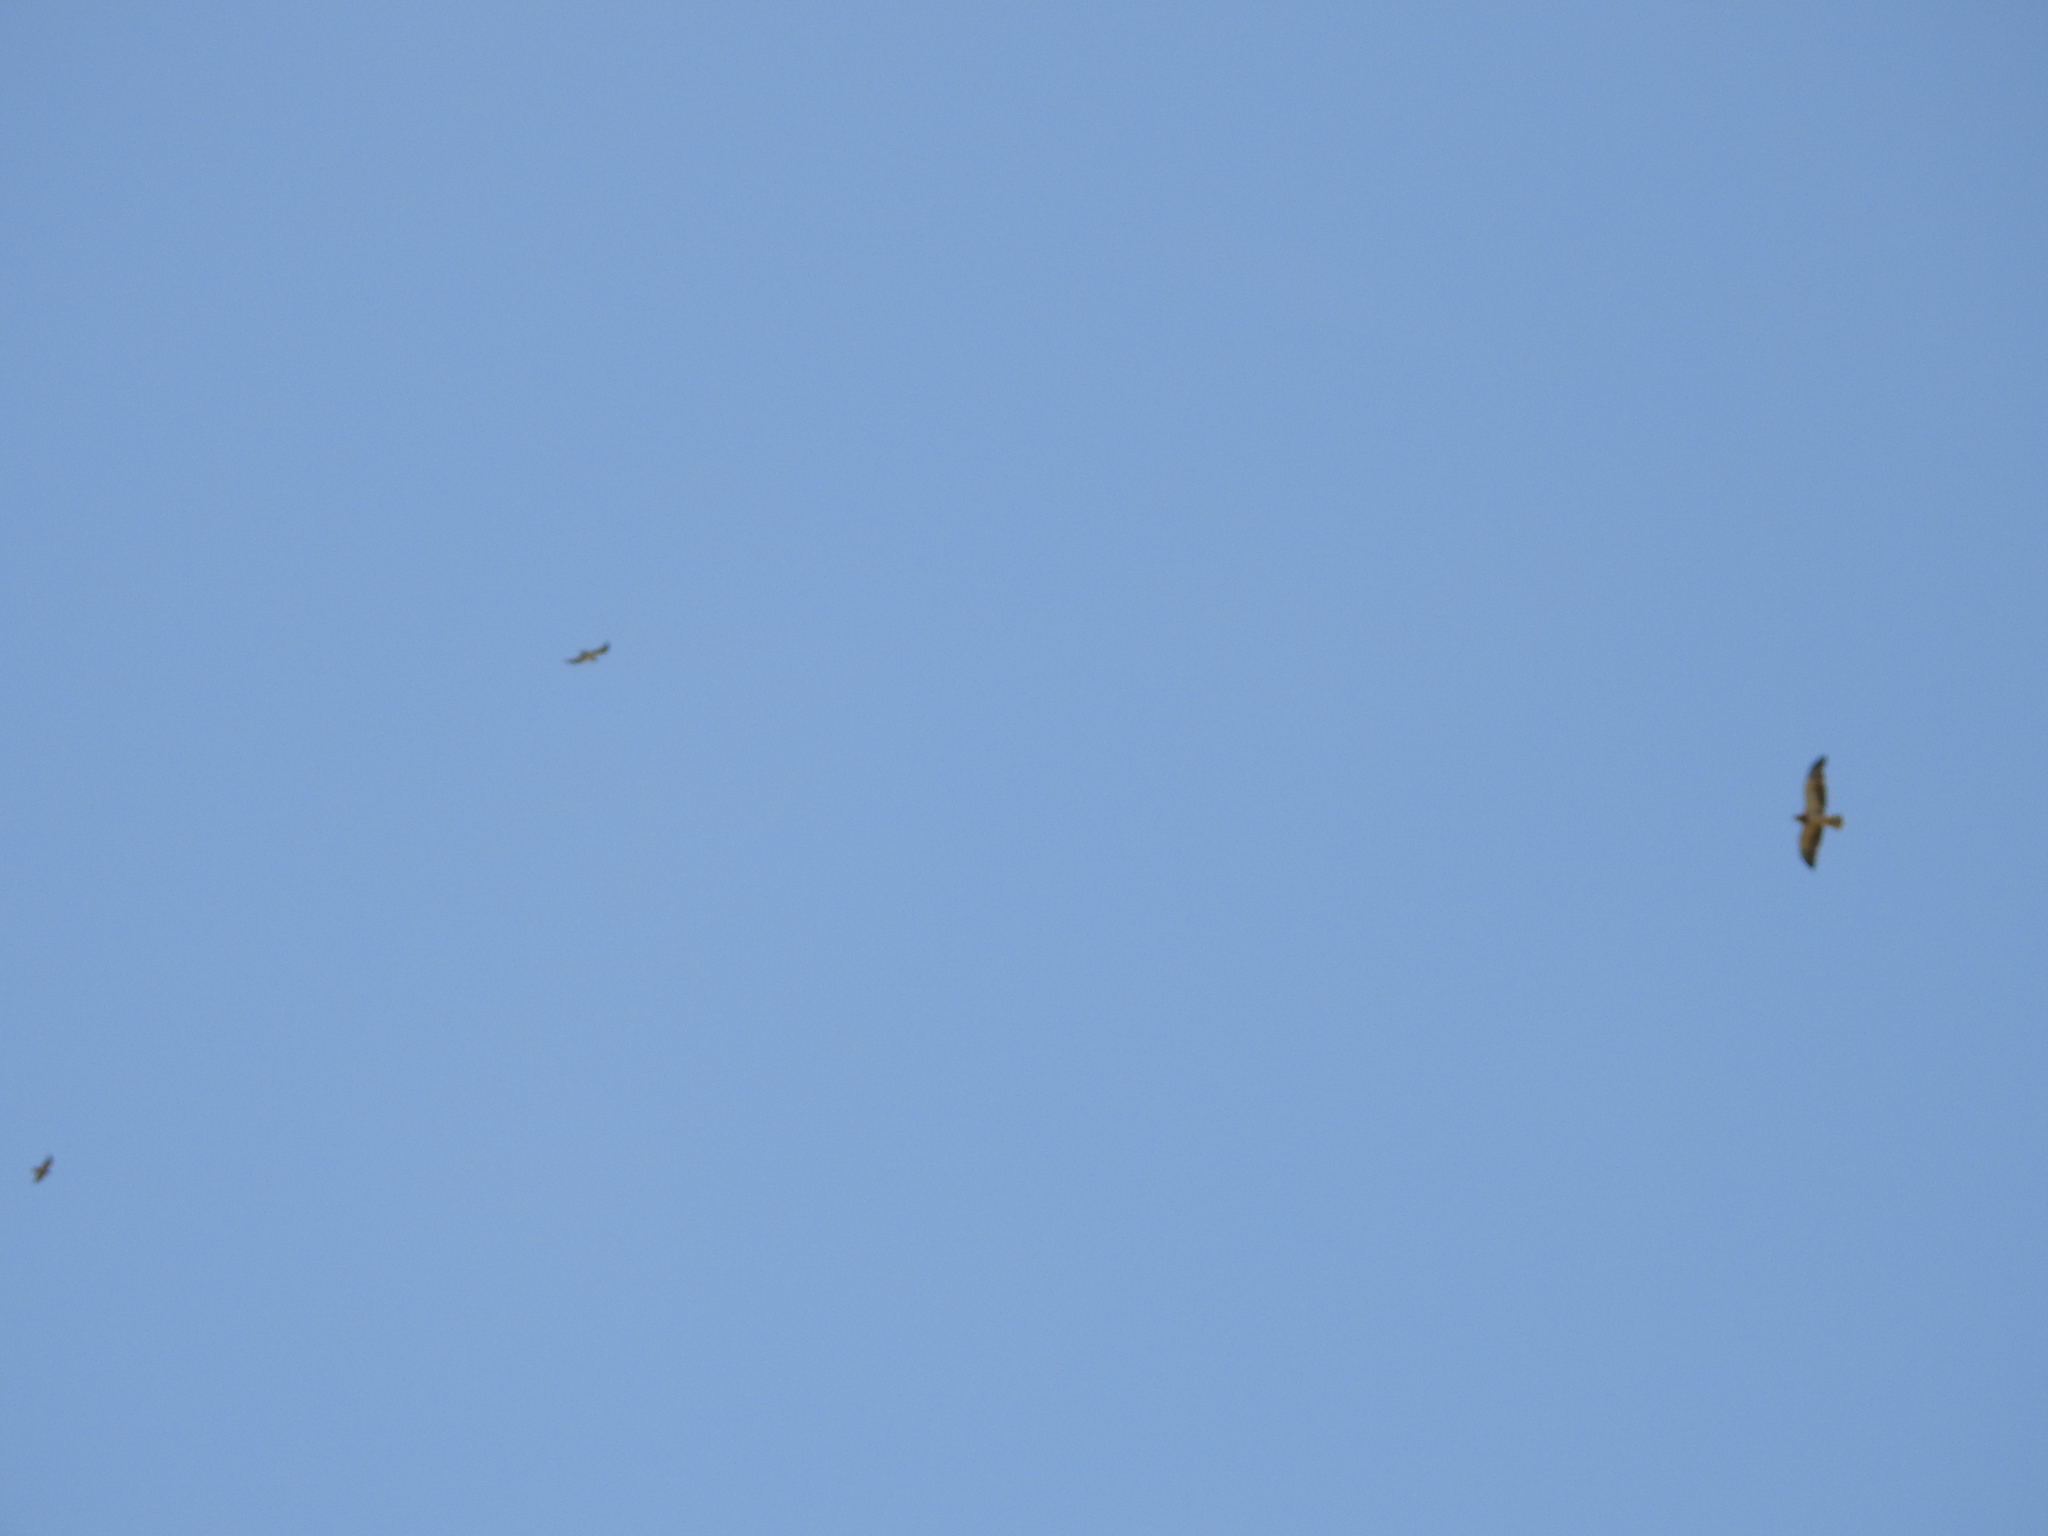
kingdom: Animalia
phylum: Chordata
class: Aves
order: Accipitriformes
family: Accipitridae
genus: Buteo
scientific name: Buteo swainsoni
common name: Swainson's hawk
